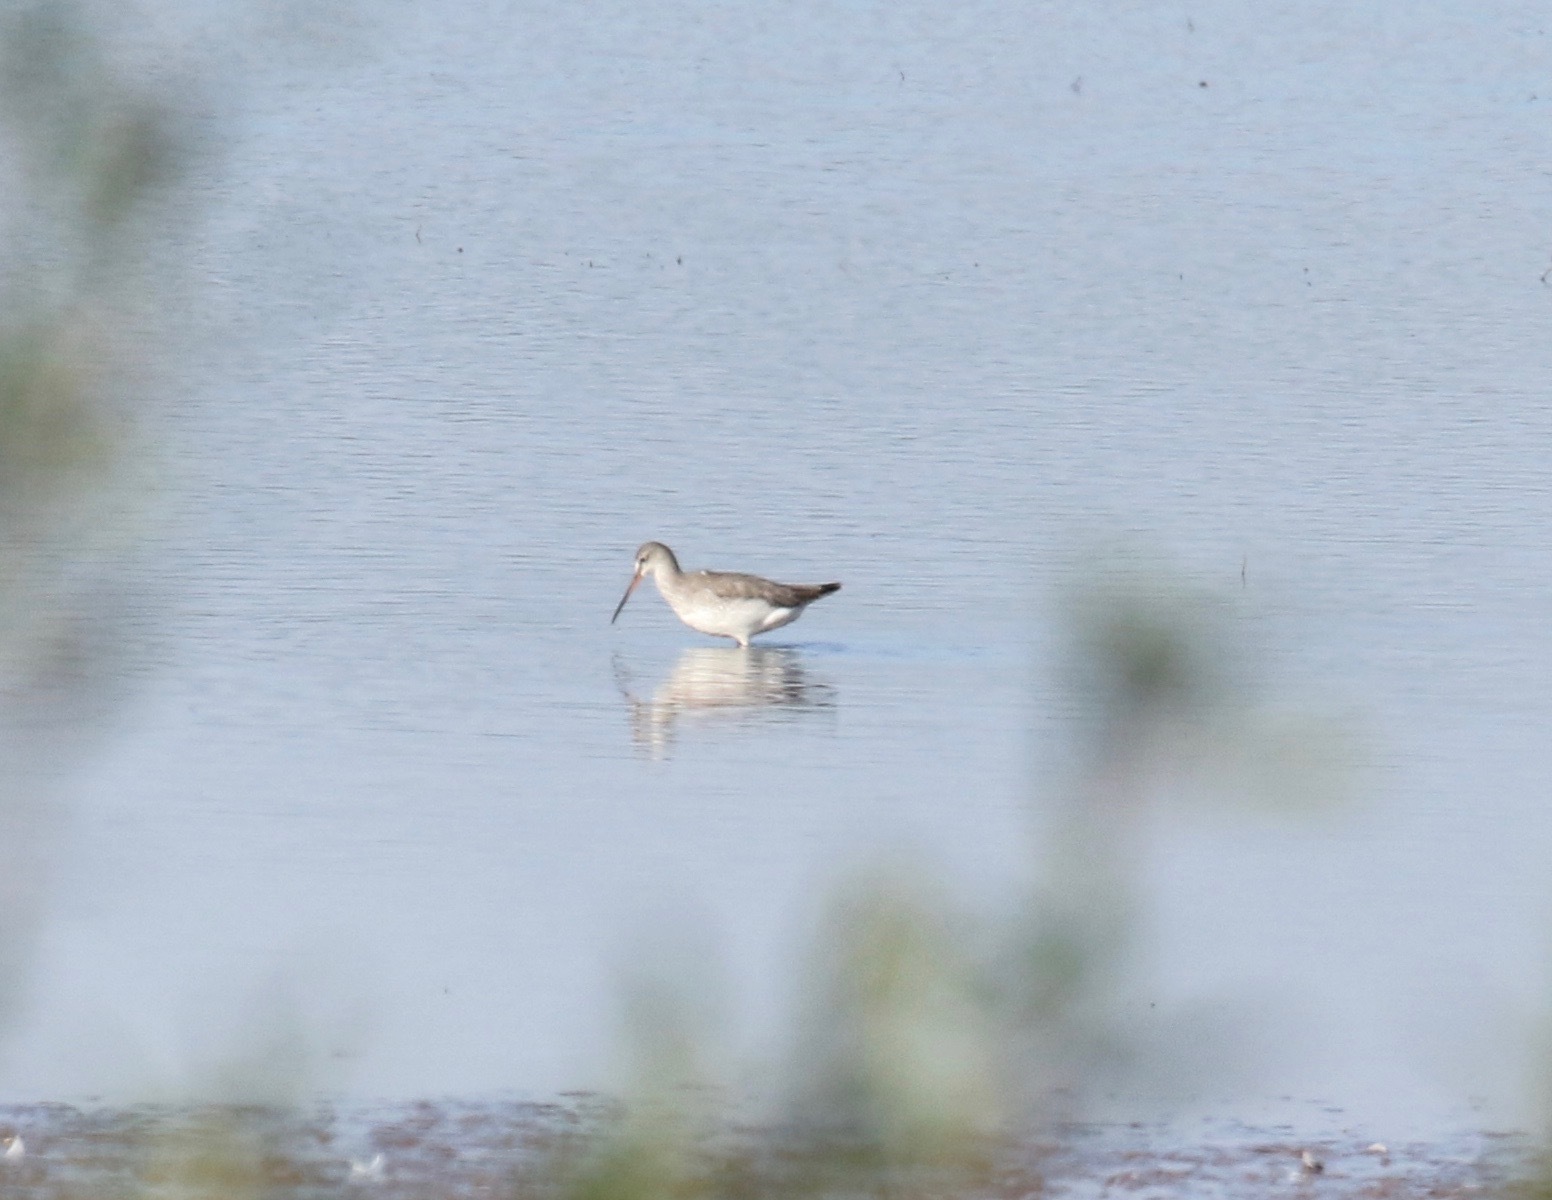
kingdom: Animalia
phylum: Chordata
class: Aves
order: Charadriiformes
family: Scolopacidae
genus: Tringa
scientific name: Tringa erythropus
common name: Spotted redshank
